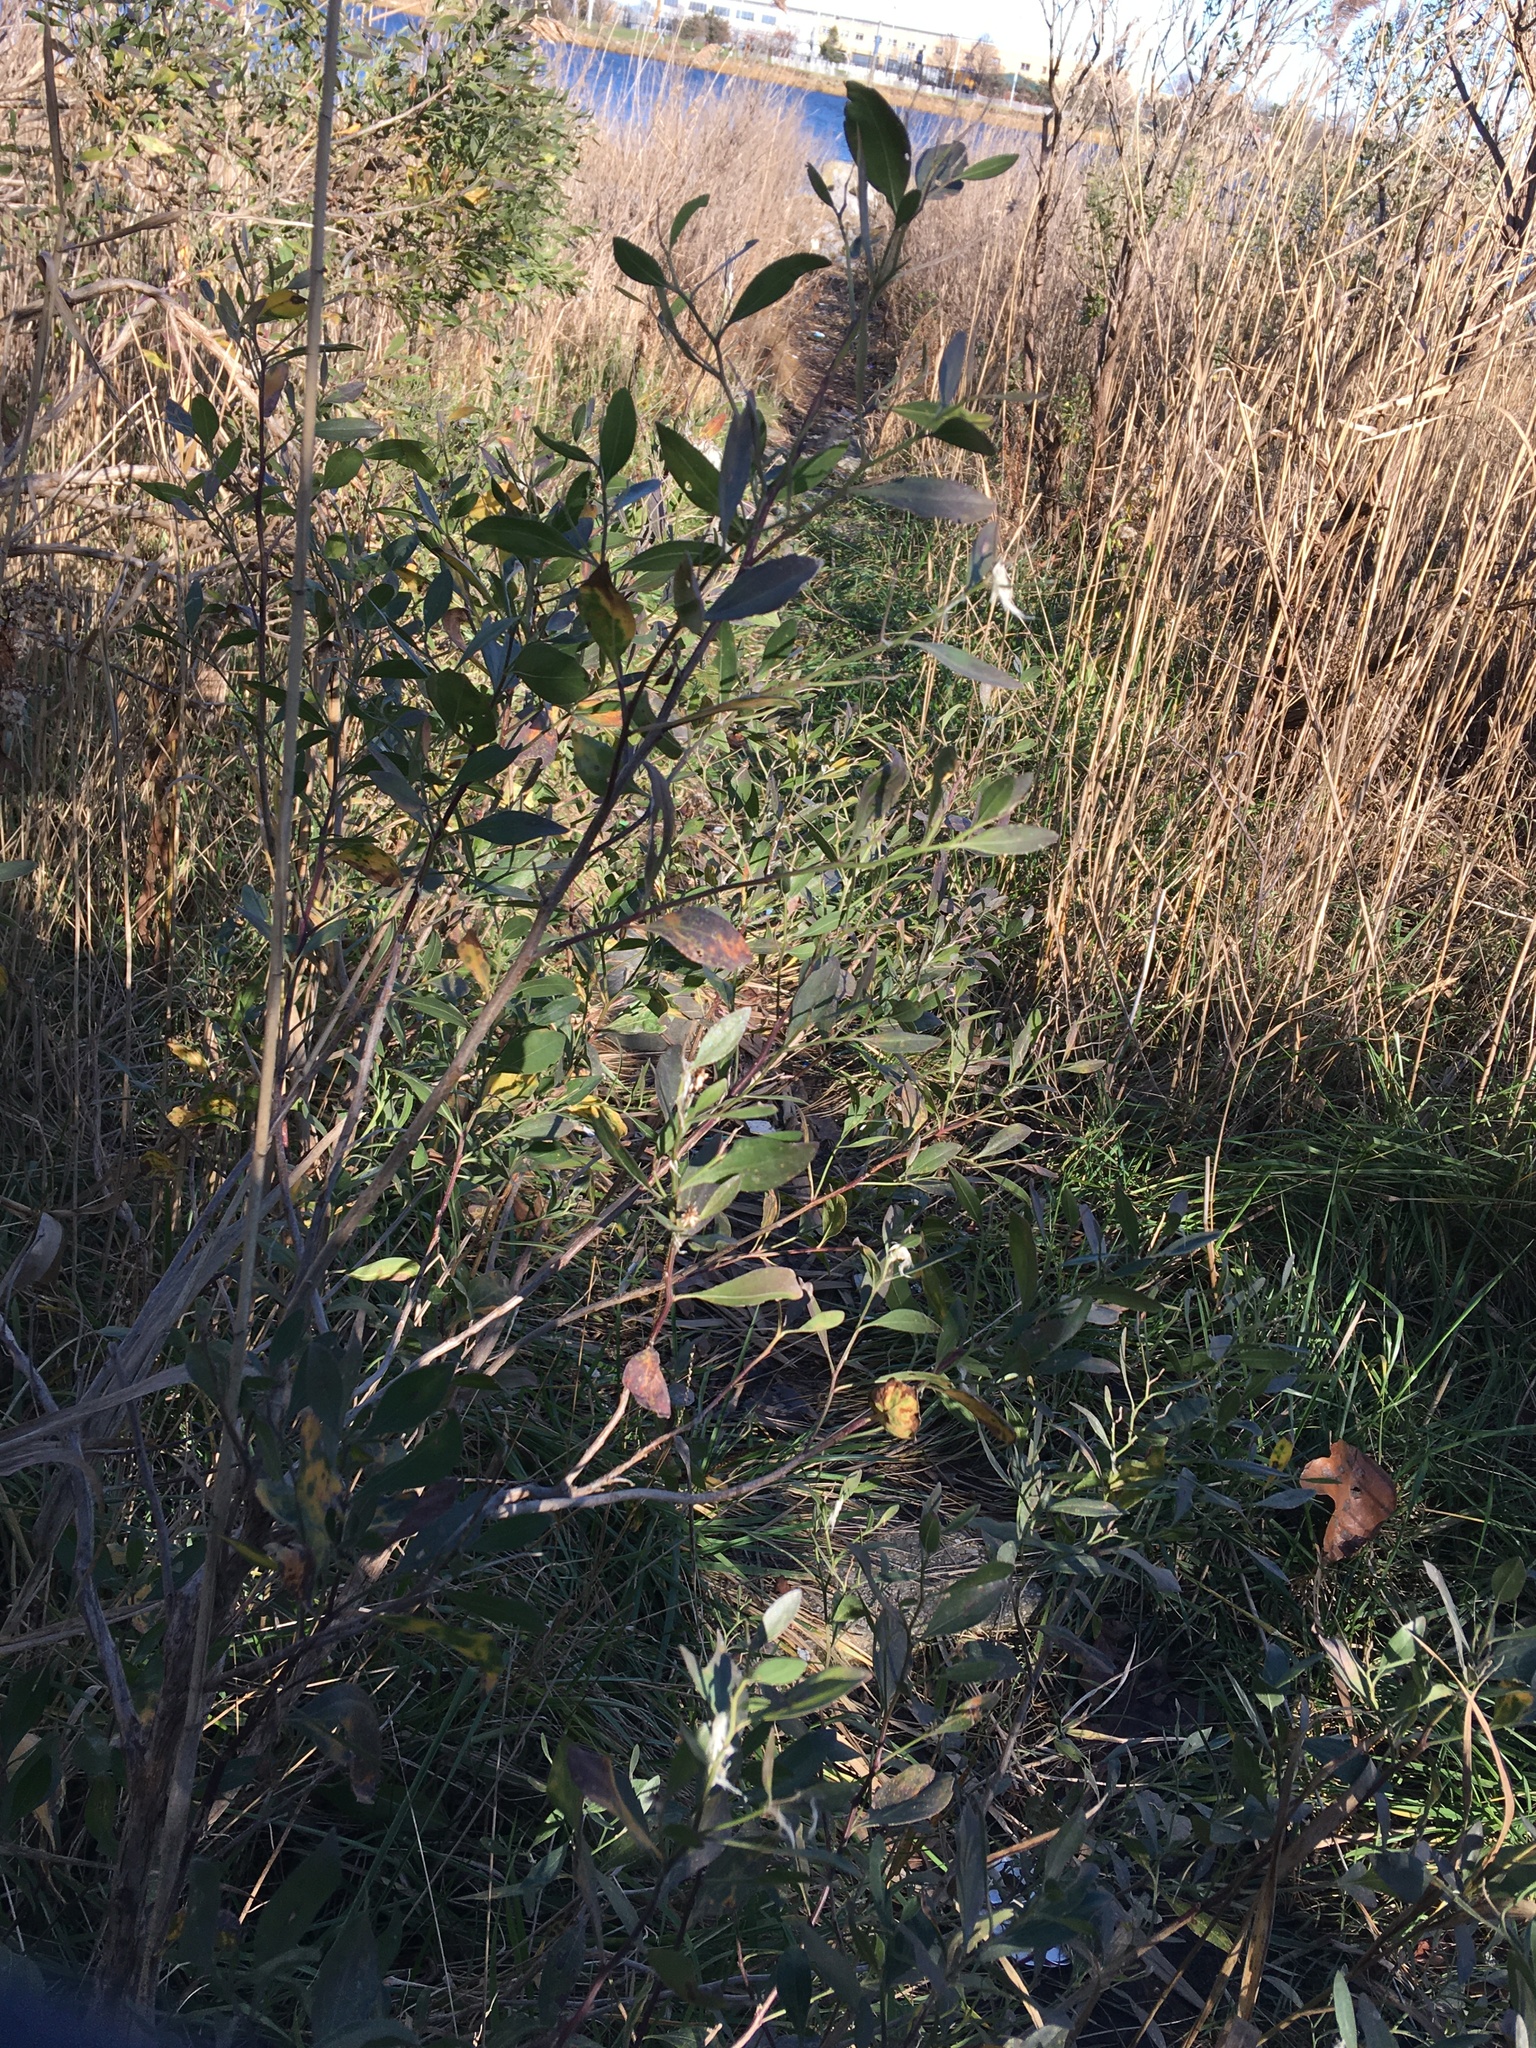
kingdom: Plantae
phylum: Tracheophyta
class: Magnoliopsida
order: Asterales
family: Asteraceae
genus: Baccharis
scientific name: Baccharis halimifolia
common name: Eastern baccharis
